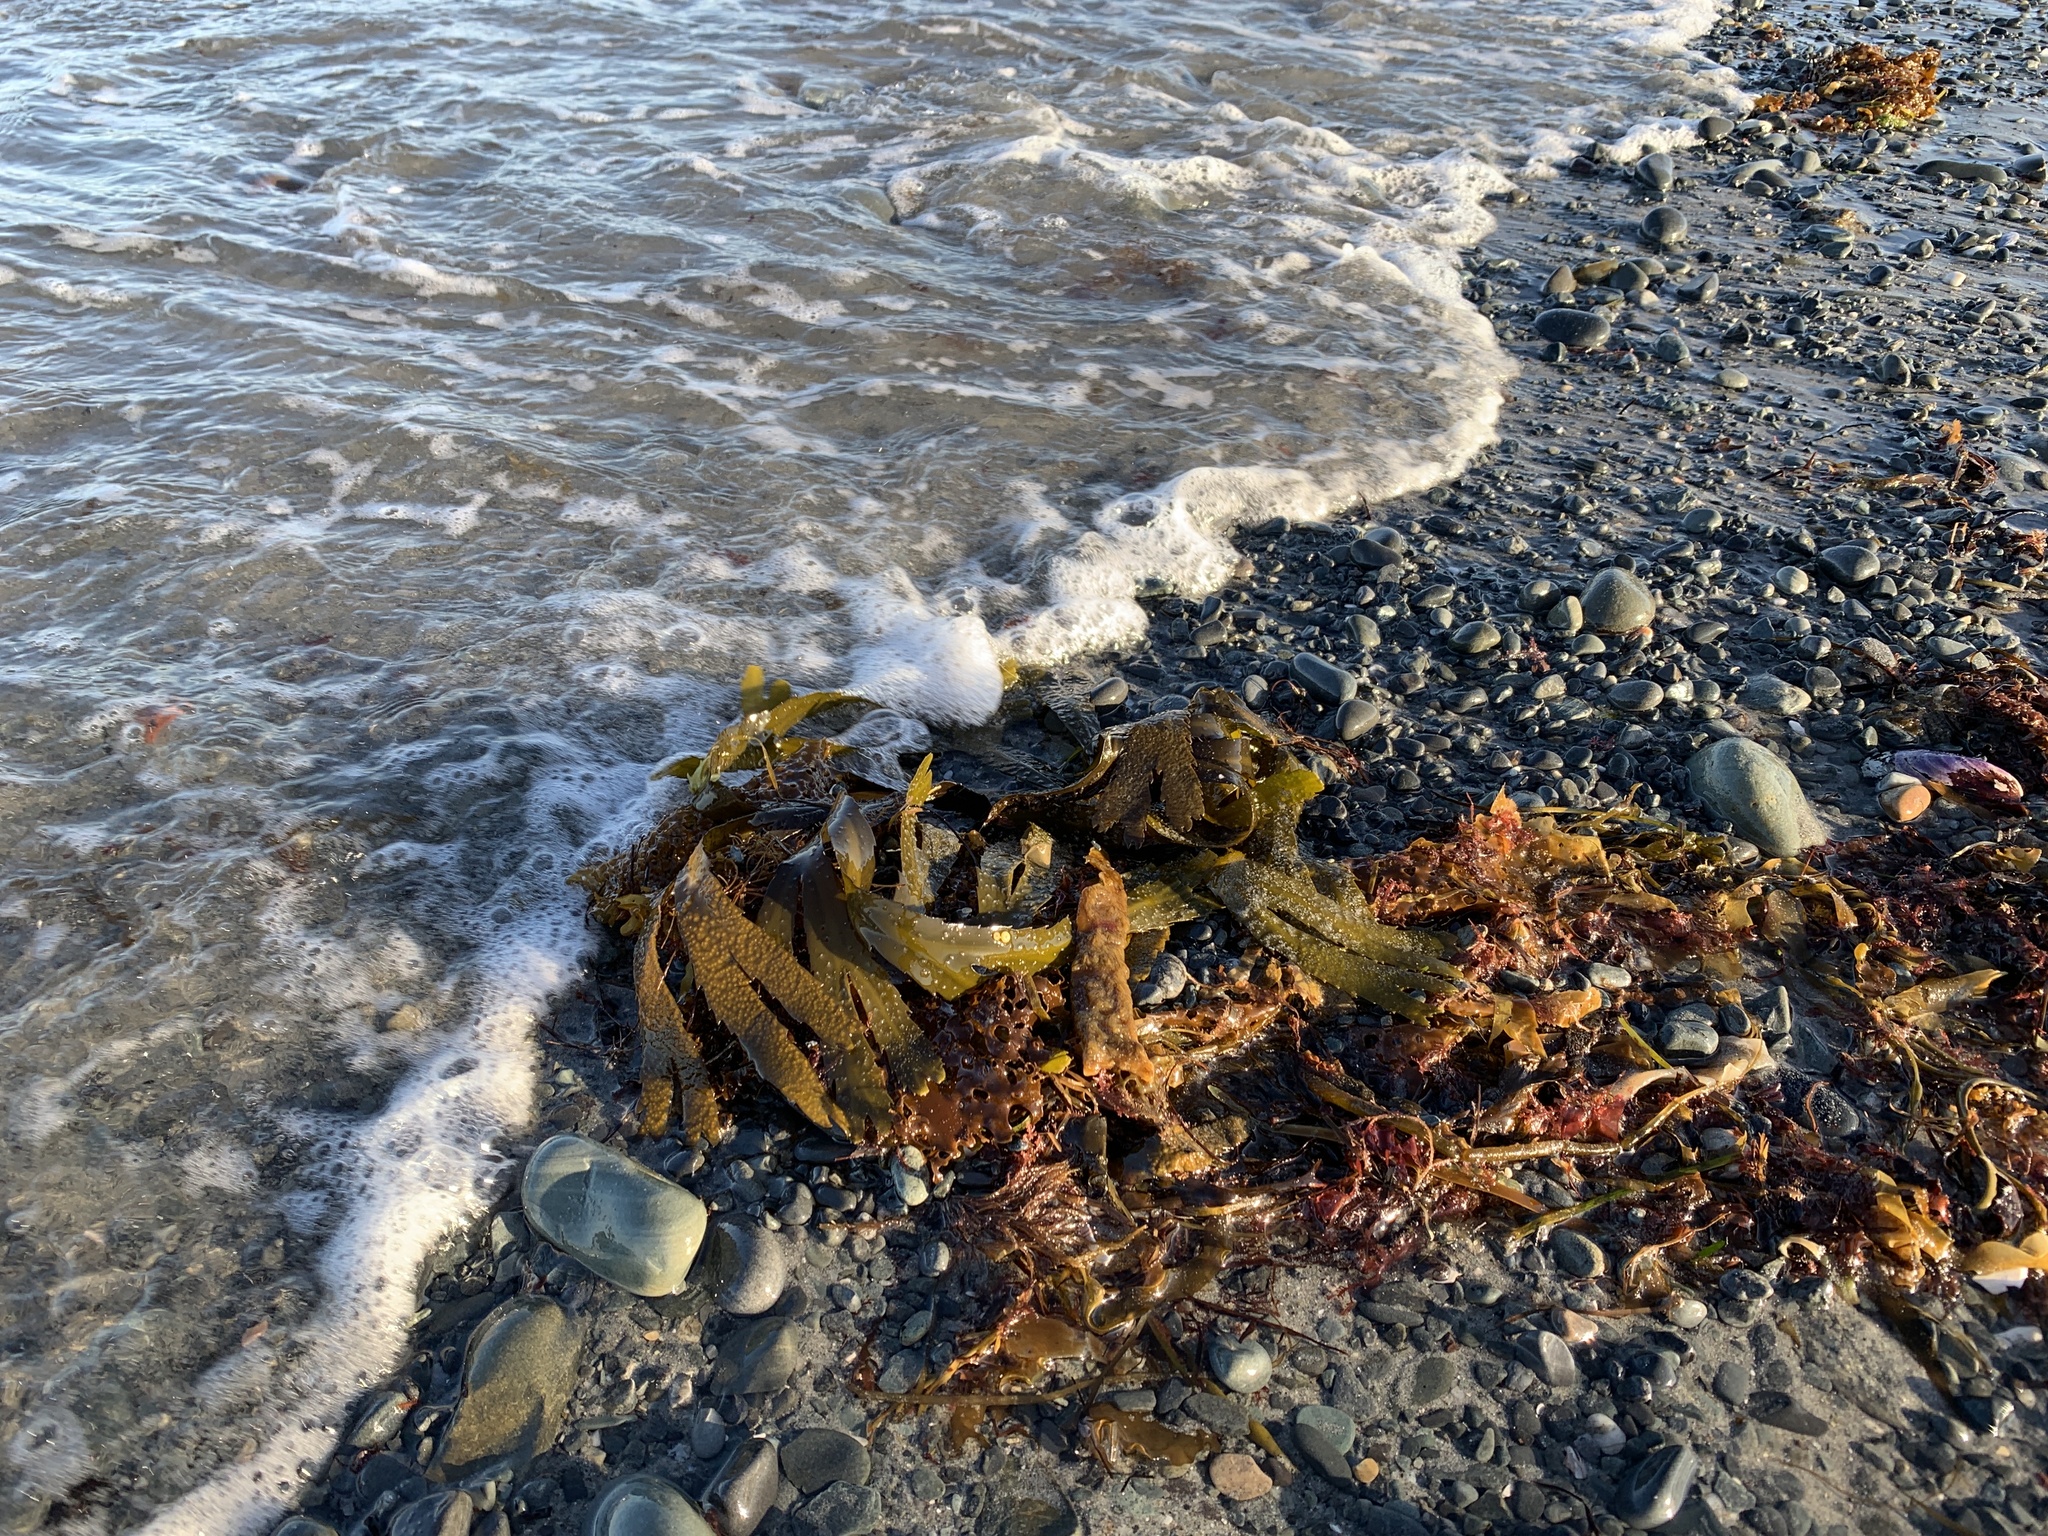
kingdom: Chromista
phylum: Ochrophyta
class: Phaeophyceae
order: Fucales
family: Fucaceae
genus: Fucus
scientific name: Fucus serratus
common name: Toothed wrack
